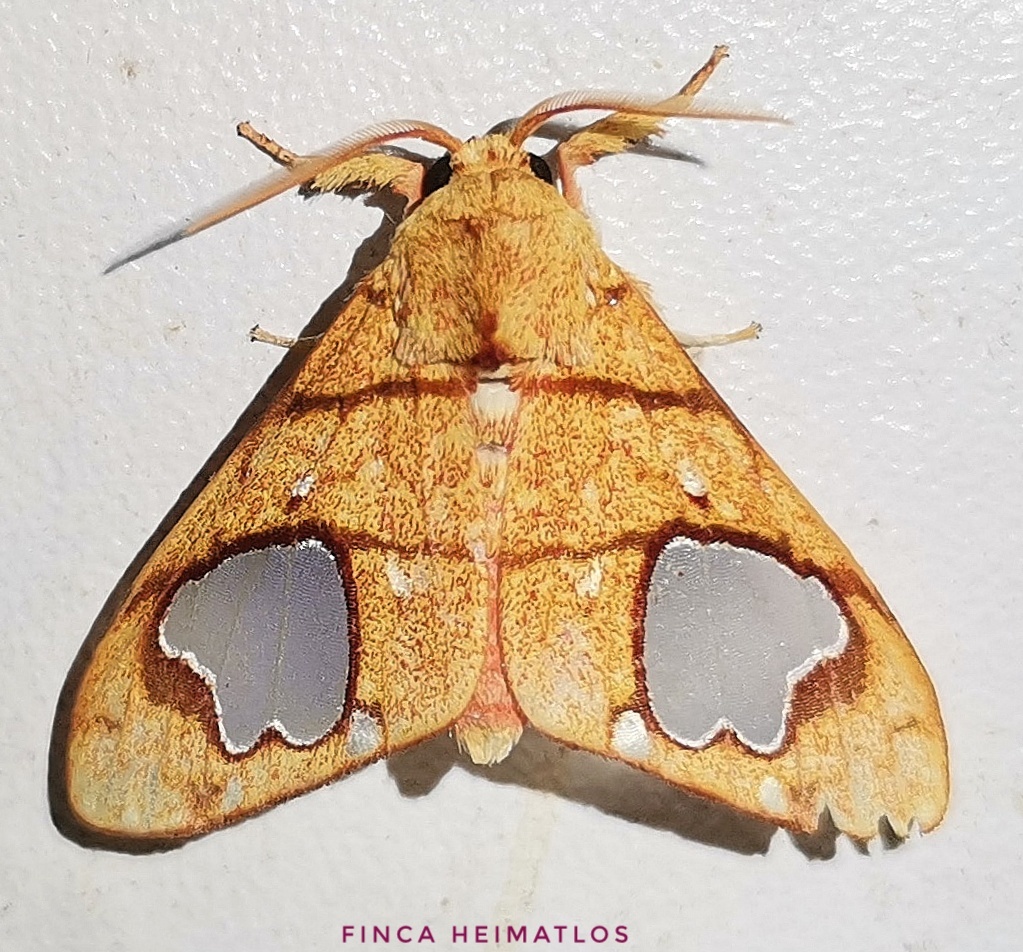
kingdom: Animalia
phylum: Arthropoda
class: Insecta
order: Lepidoptera
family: Erebidae
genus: Zatrephes
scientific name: Zatrephes trailii
